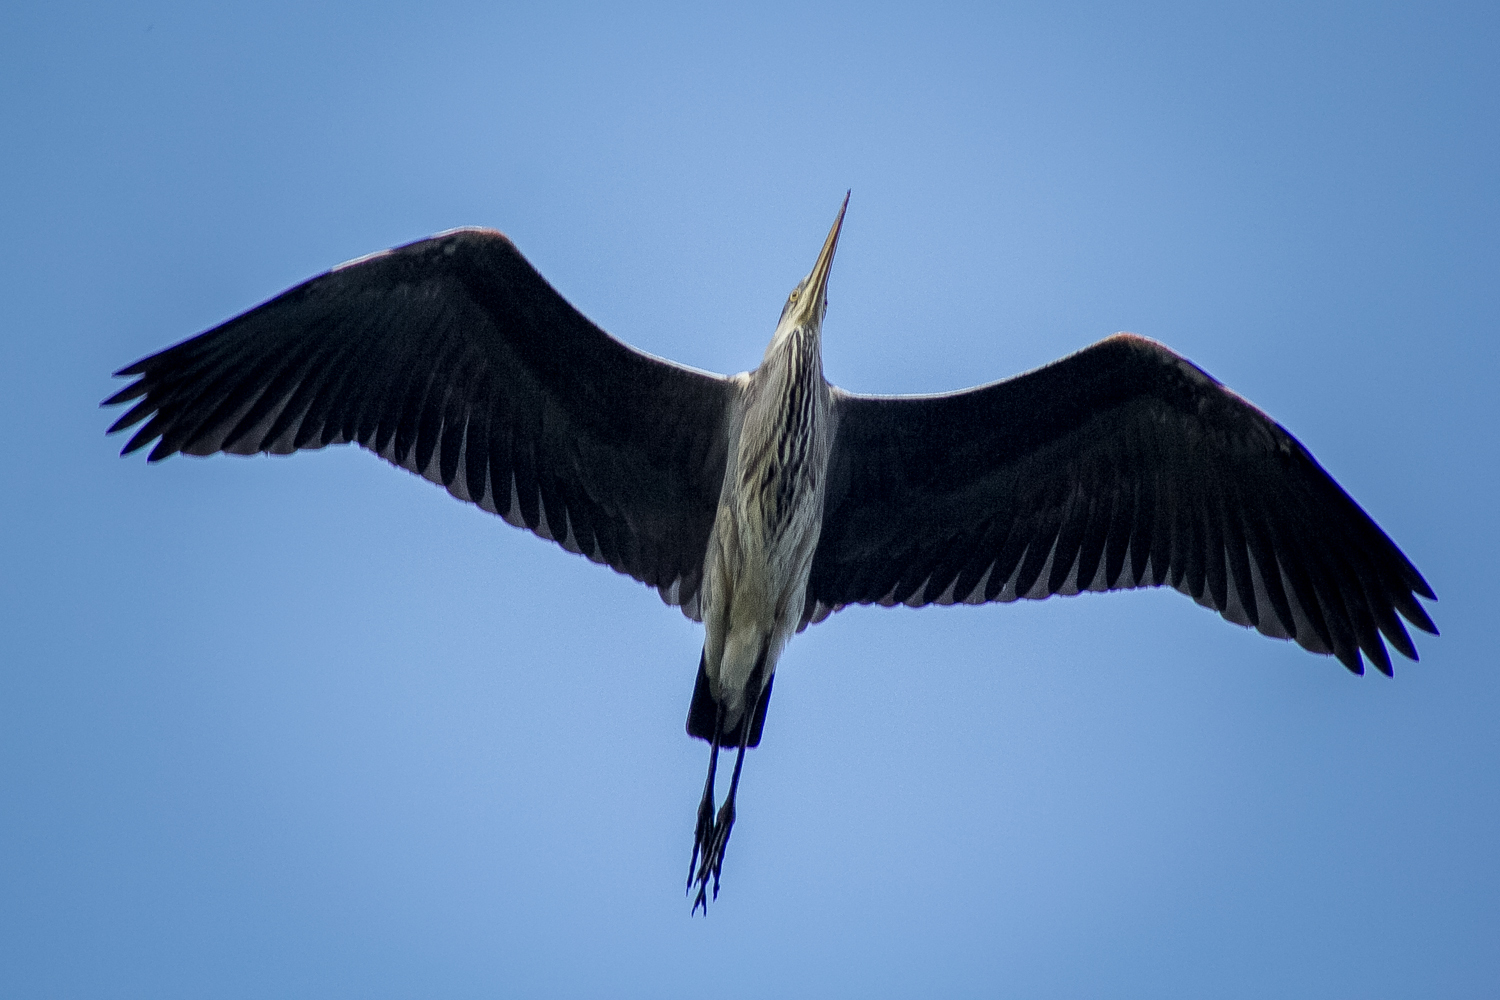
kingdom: Animalia
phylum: Chordata
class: Aves
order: Pelecaniformes
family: Ardeidae
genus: Ardea
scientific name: Ardea cinerea
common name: Grey heron
